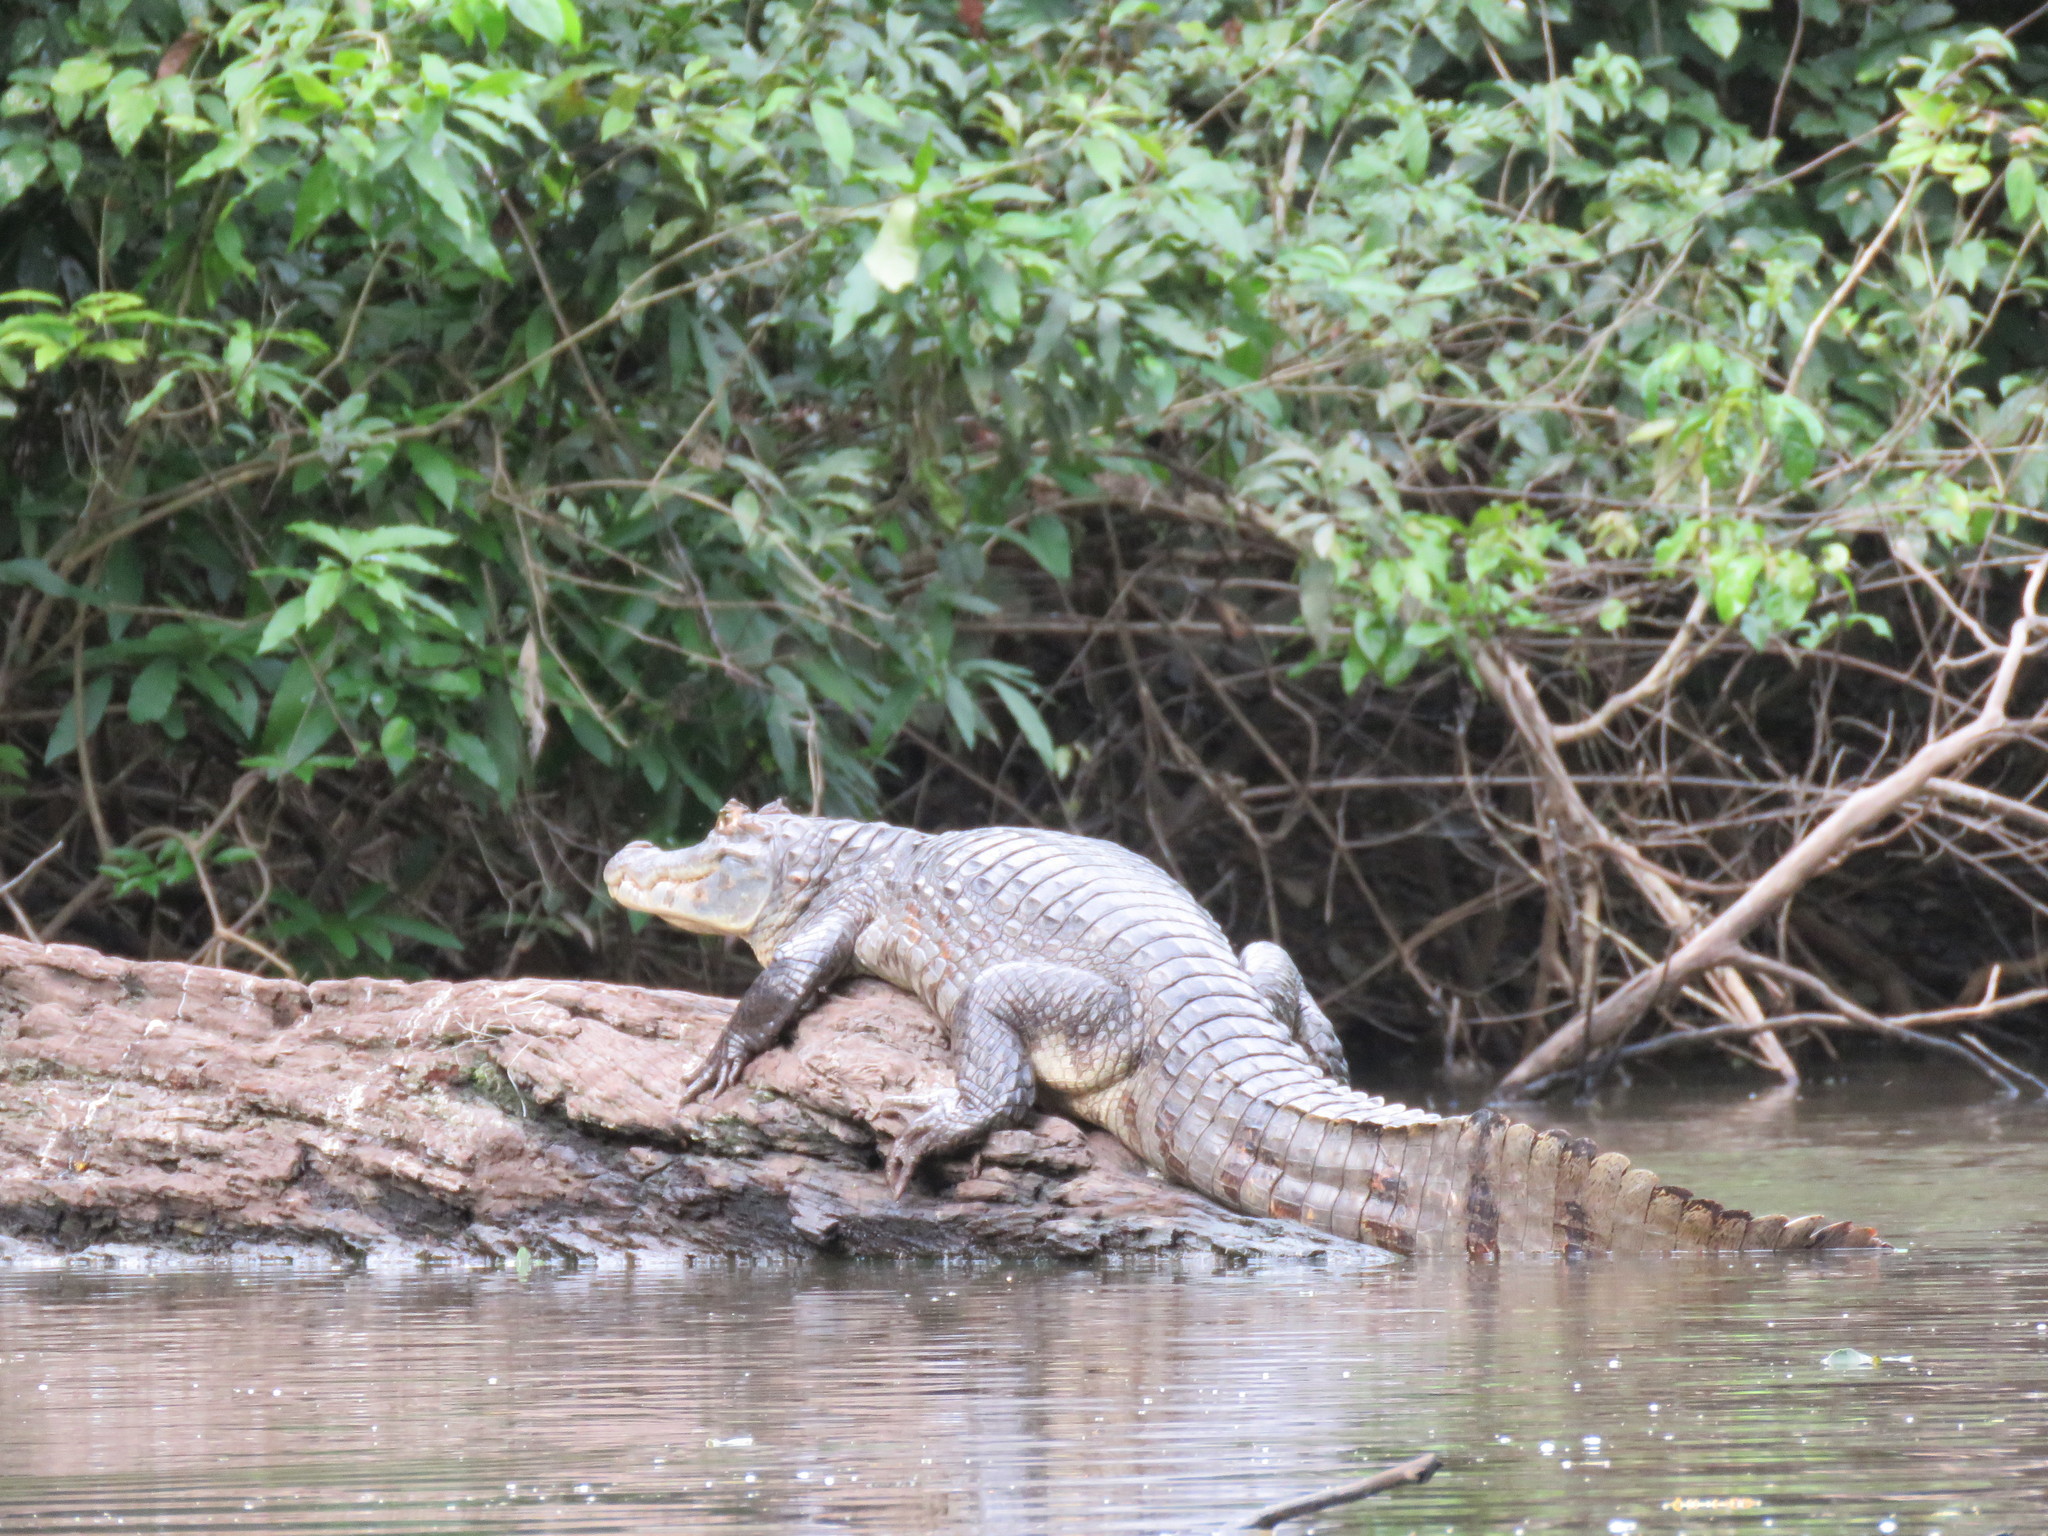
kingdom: Animalia
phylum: Chordata
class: Crocodylia
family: Alligatoridae
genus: Caiman
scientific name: Caiman yacare
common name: Yacare caiman
